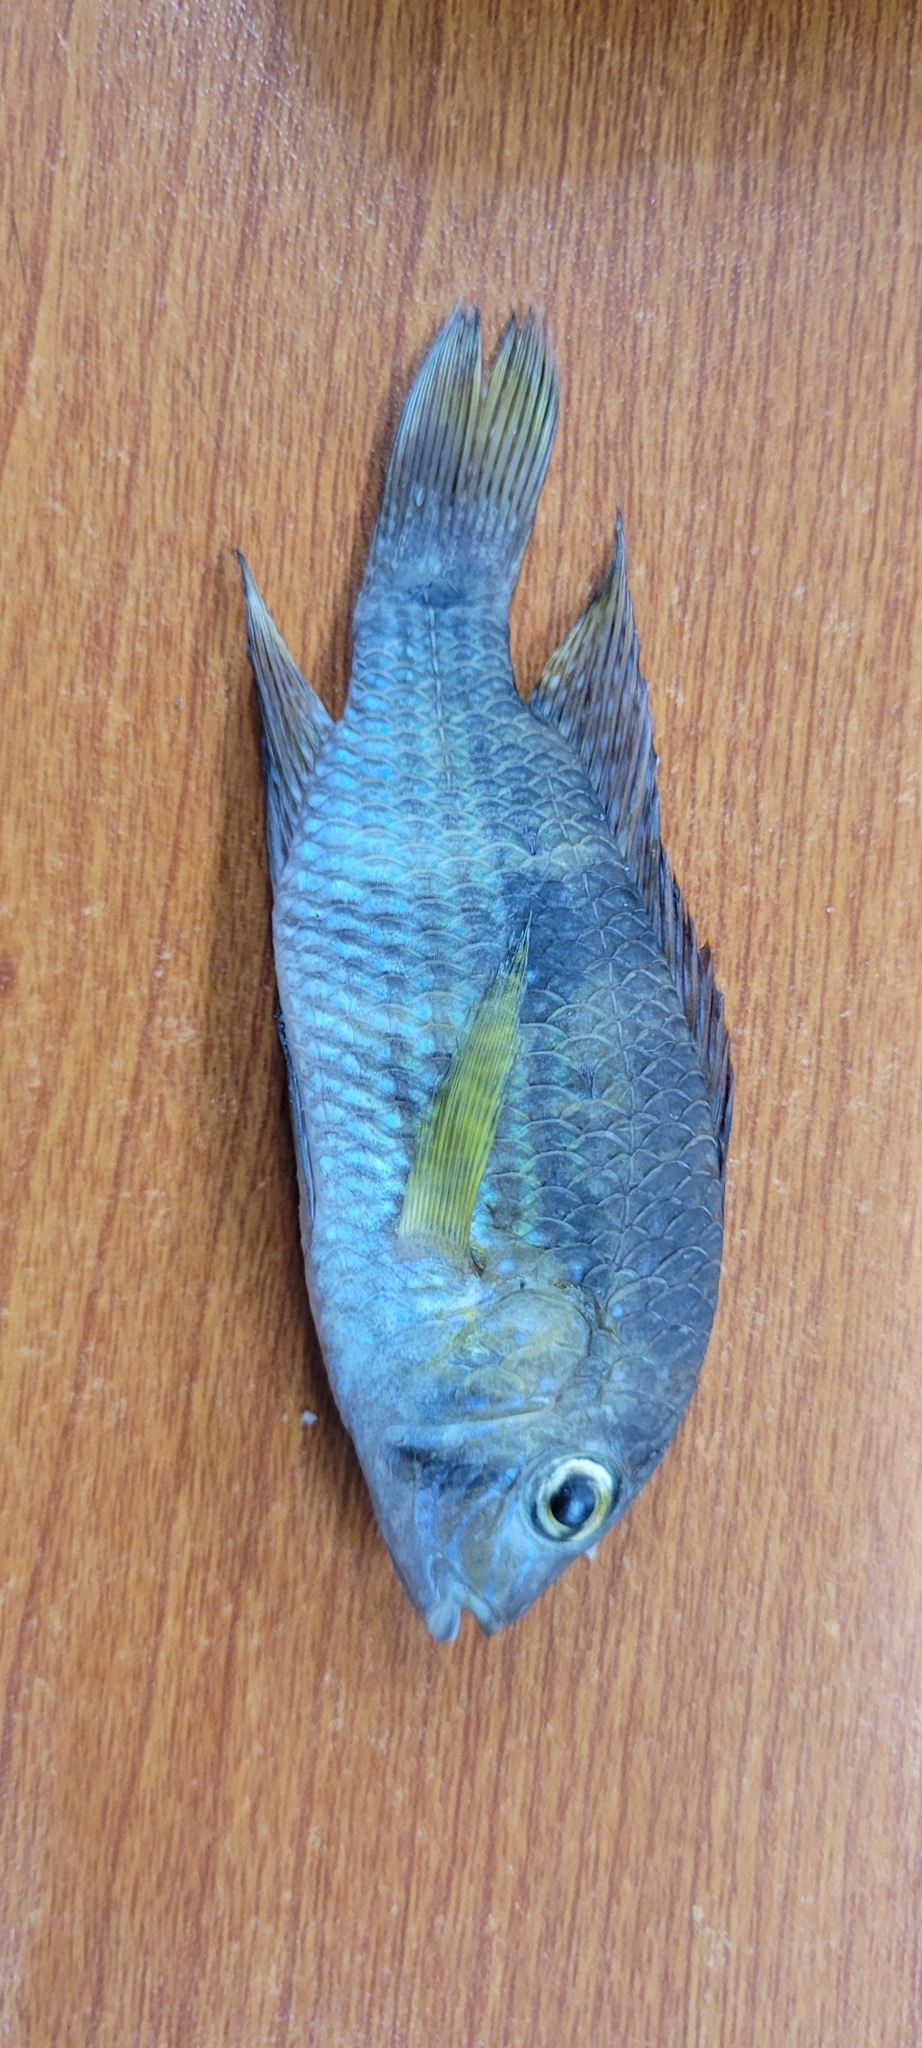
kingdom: Animalia
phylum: Chordata
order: Perciformes
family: Cichlidae
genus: Andinoacara
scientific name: Andinoacara coeruleopunctatus
